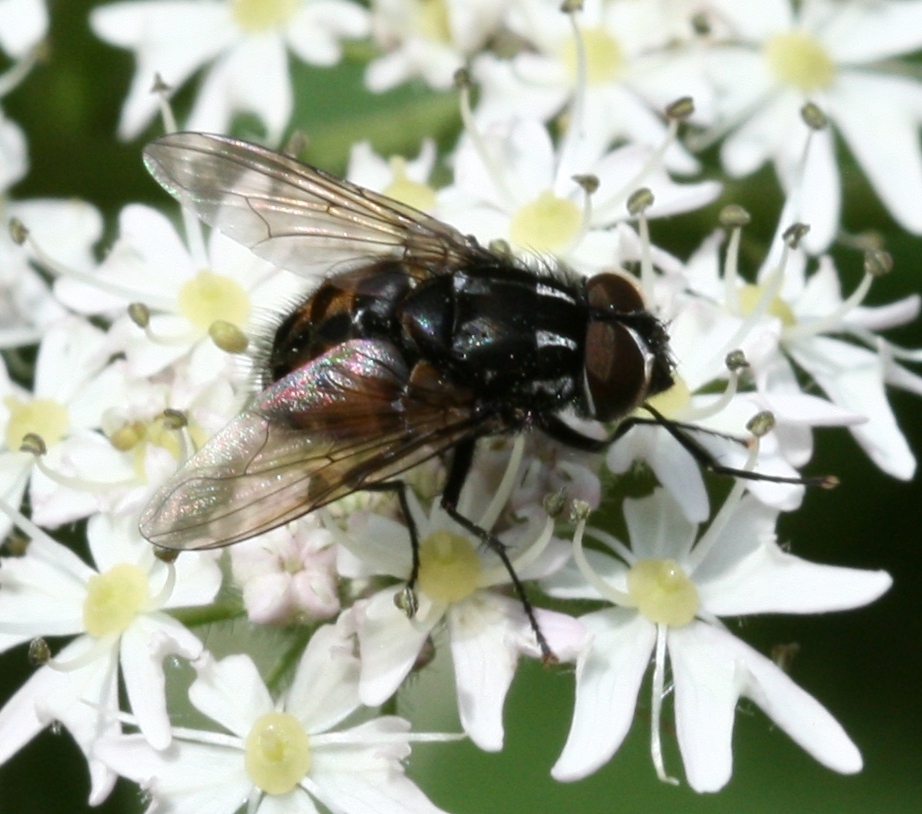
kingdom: Animalia
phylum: Arthropoda
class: Insecta
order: Diptera
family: Muscidae
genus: Graphomya
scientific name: Graphomya maculata
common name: Muscid fly
